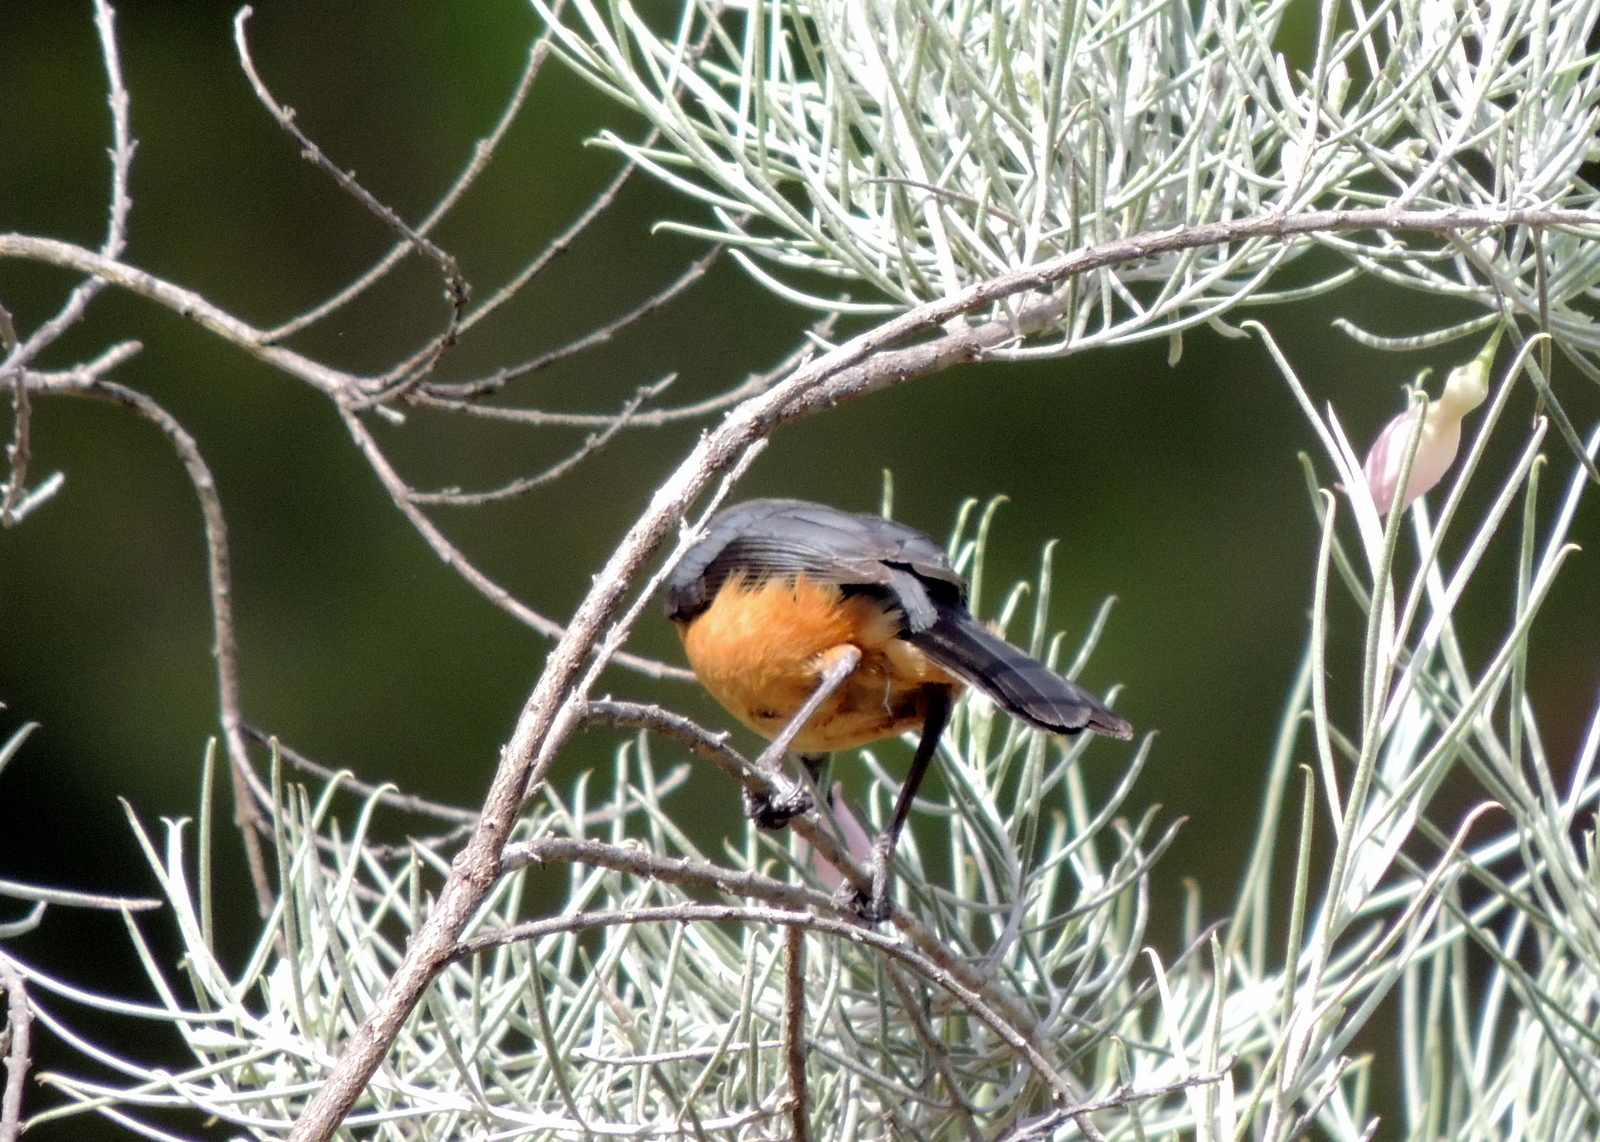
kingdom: Animalia
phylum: Chordata
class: Aves
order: Passeriformes
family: Meliphagidae
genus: Acanthorhynchus
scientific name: Acanthorhynchus tenuirostris
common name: Eastern spinebill
